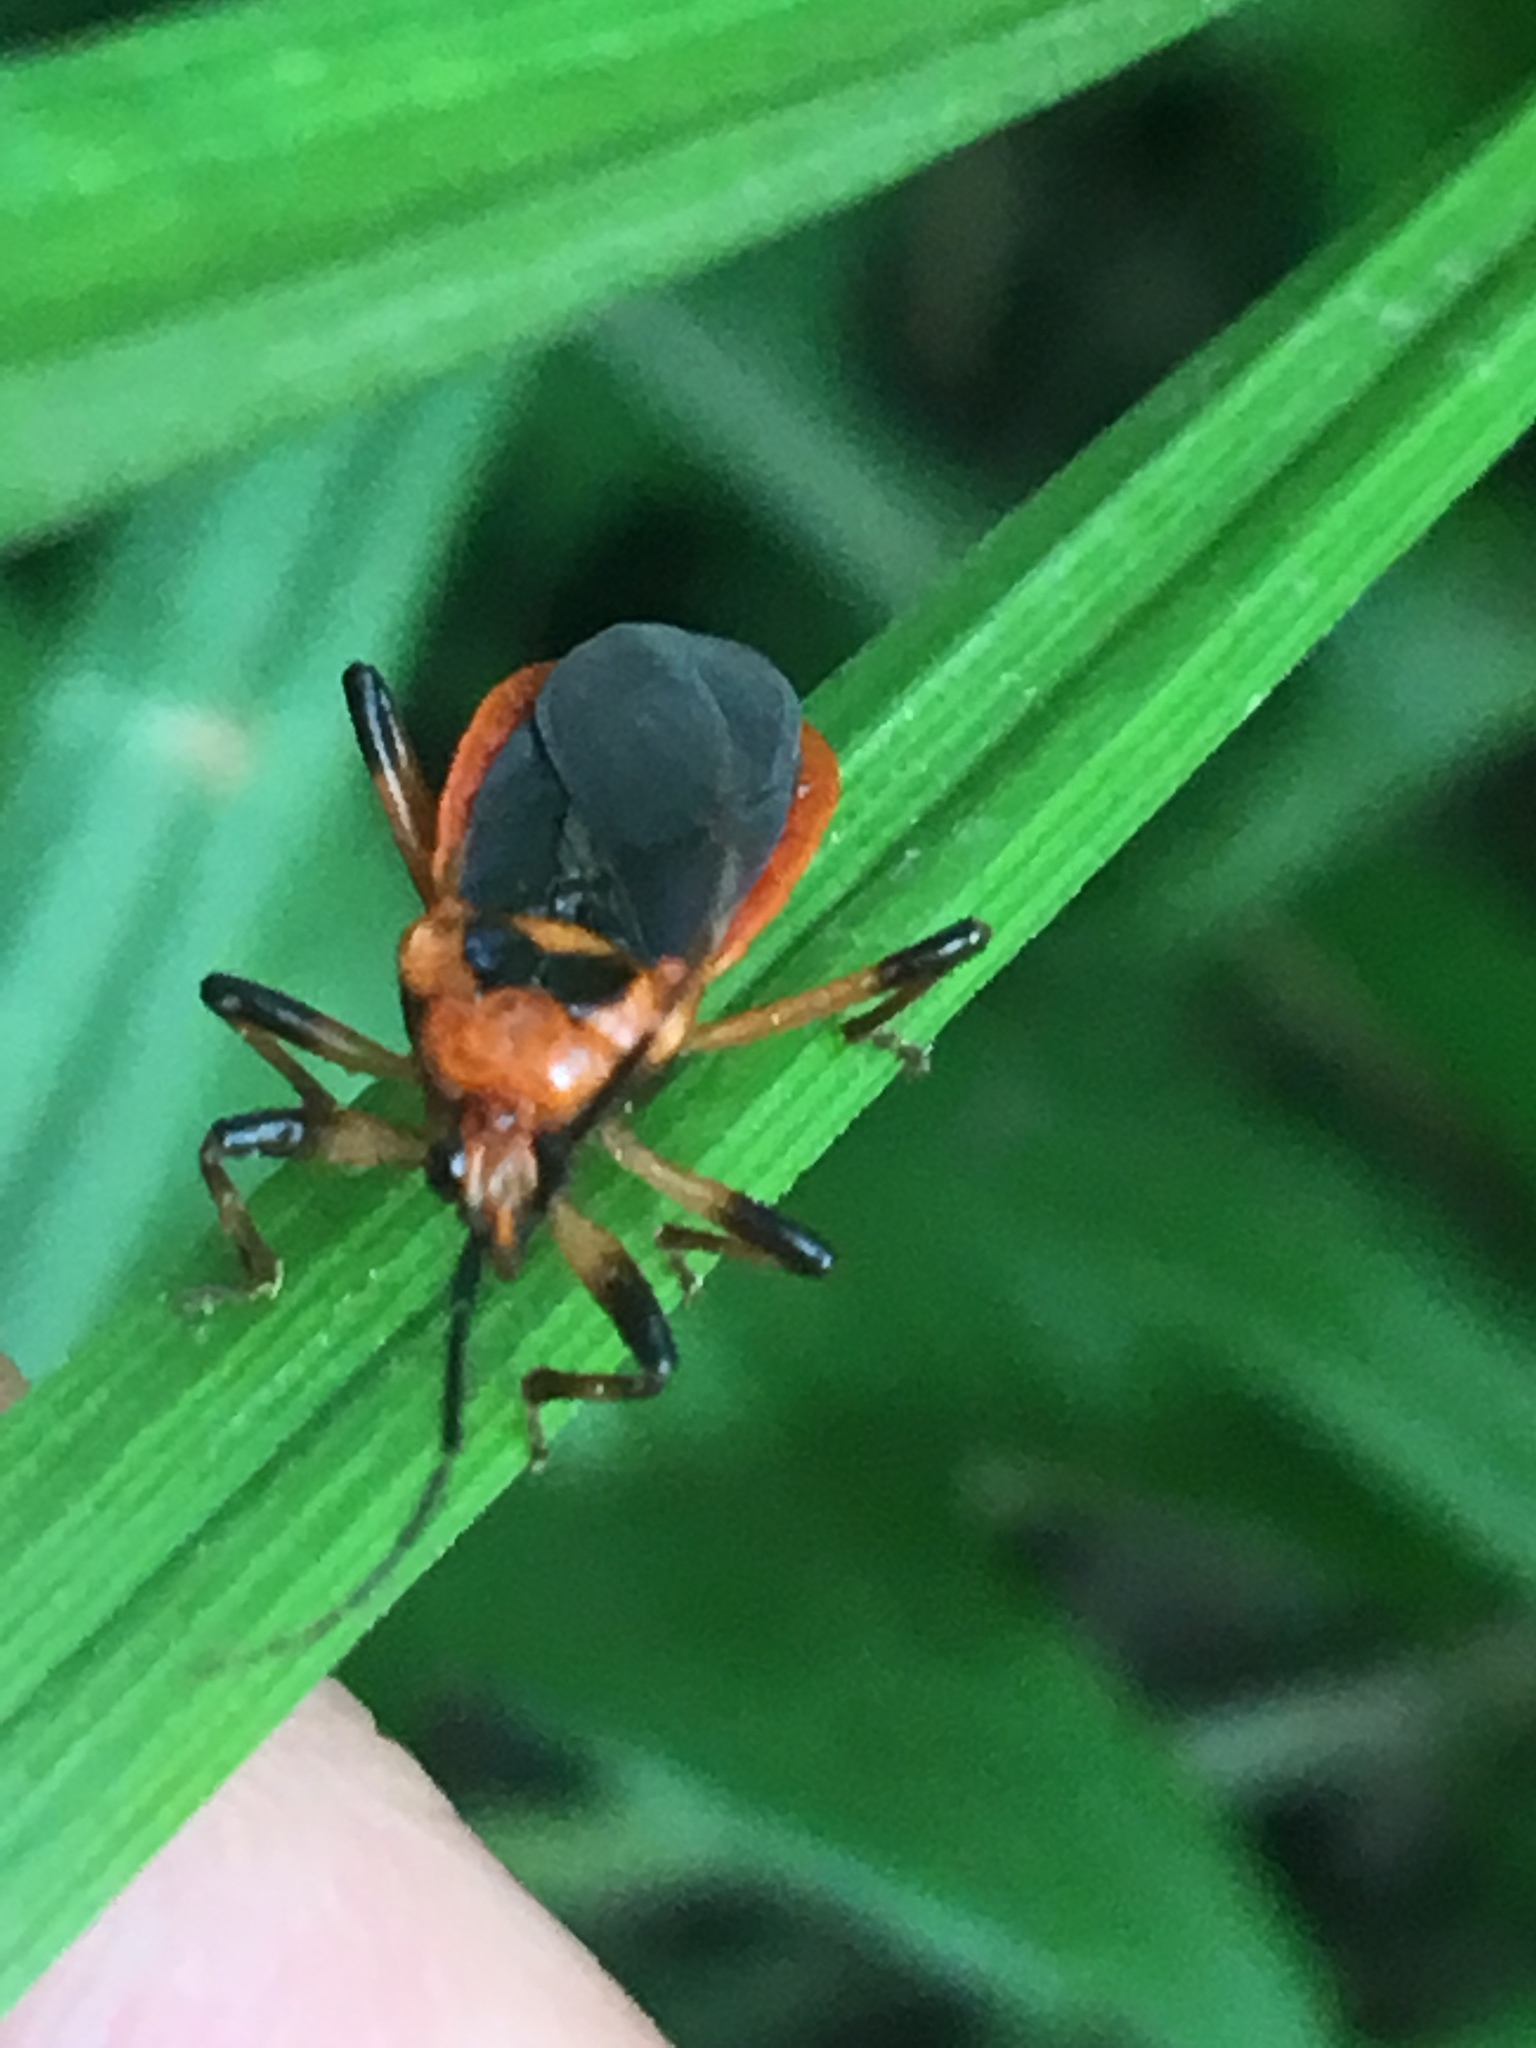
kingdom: Animalia
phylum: Arthropoda
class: Insecta
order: Hemiptera
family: Reduviidae
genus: Rhiginia
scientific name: Rhiginia cruciata
